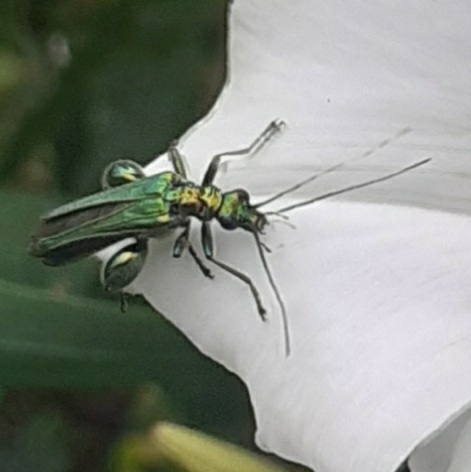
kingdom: Animalia
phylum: Arthropoda
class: Insecta
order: Coleoptera
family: Oedemeridae
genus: Oedemera
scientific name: Oedemera nobilis
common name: Swollen-thighed beetle
